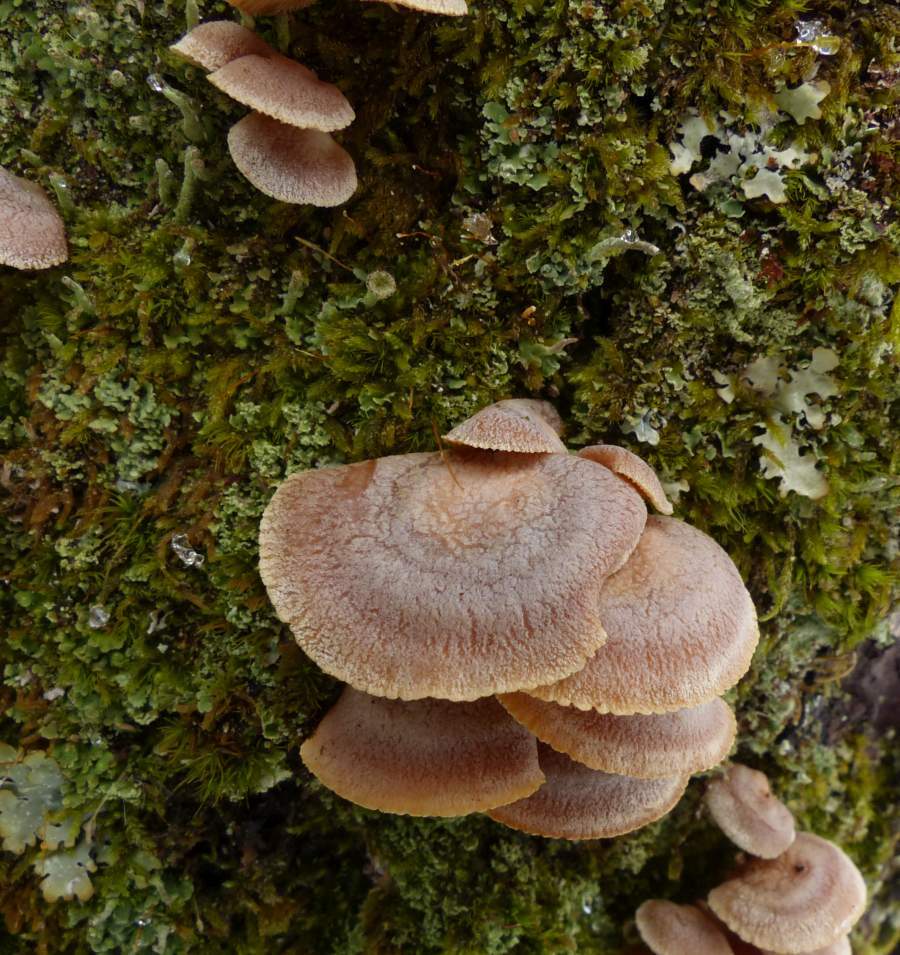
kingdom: Fungi
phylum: Basidiomycota
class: Agaricomycetes
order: Agaricales
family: Mycenaceae
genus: Panellus
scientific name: Panellus stipticus
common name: Bitter oysterling
